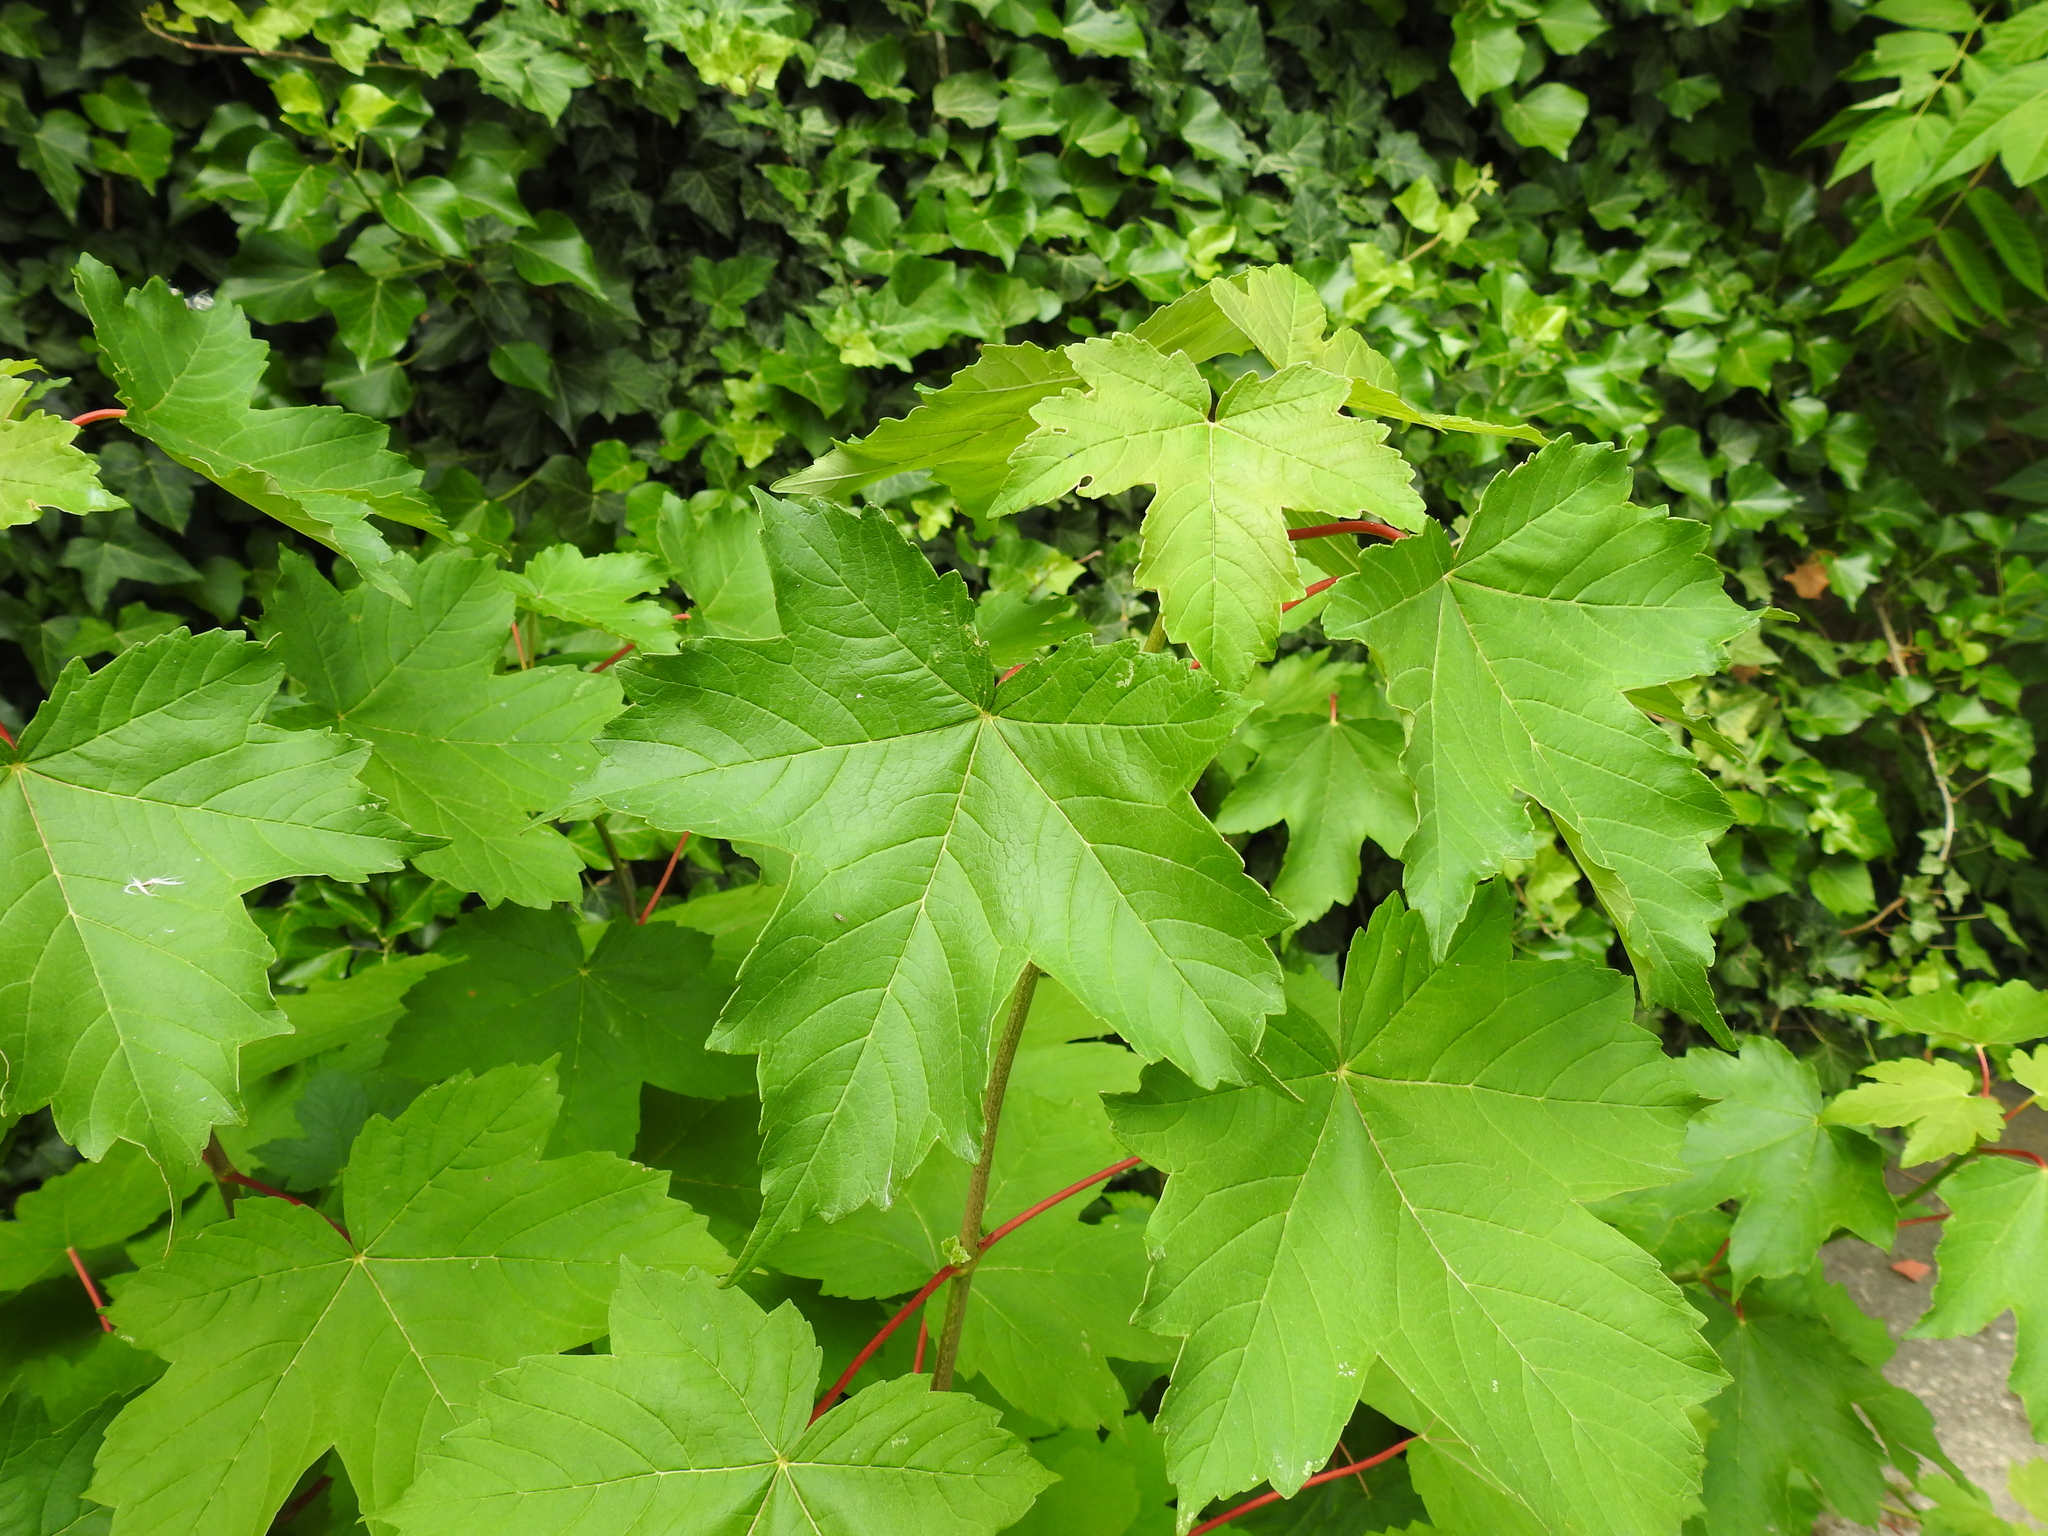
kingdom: Plantae
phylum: Tracheophyta
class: Magnoliopsida
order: Sapindales
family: Sapindaceae
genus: Acer
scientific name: Acer pseudoplatanus
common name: Sycamore
